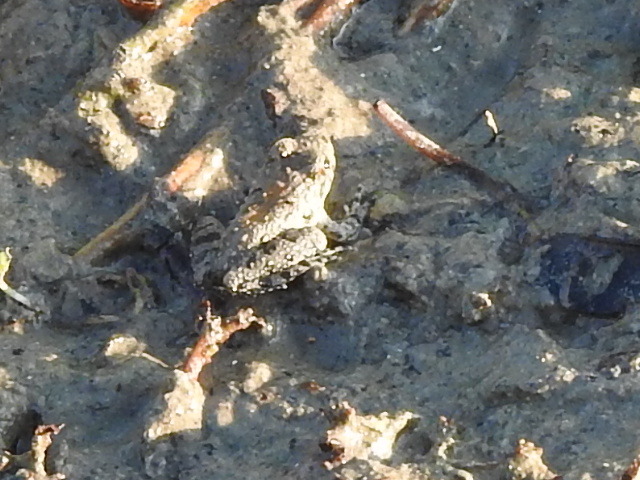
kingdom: Animalia
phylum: Chordata
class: Amphibia
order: Anura
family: Hylidae
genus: Acris
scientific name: Acris blanchardi
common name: Blanchard's cricket frog
